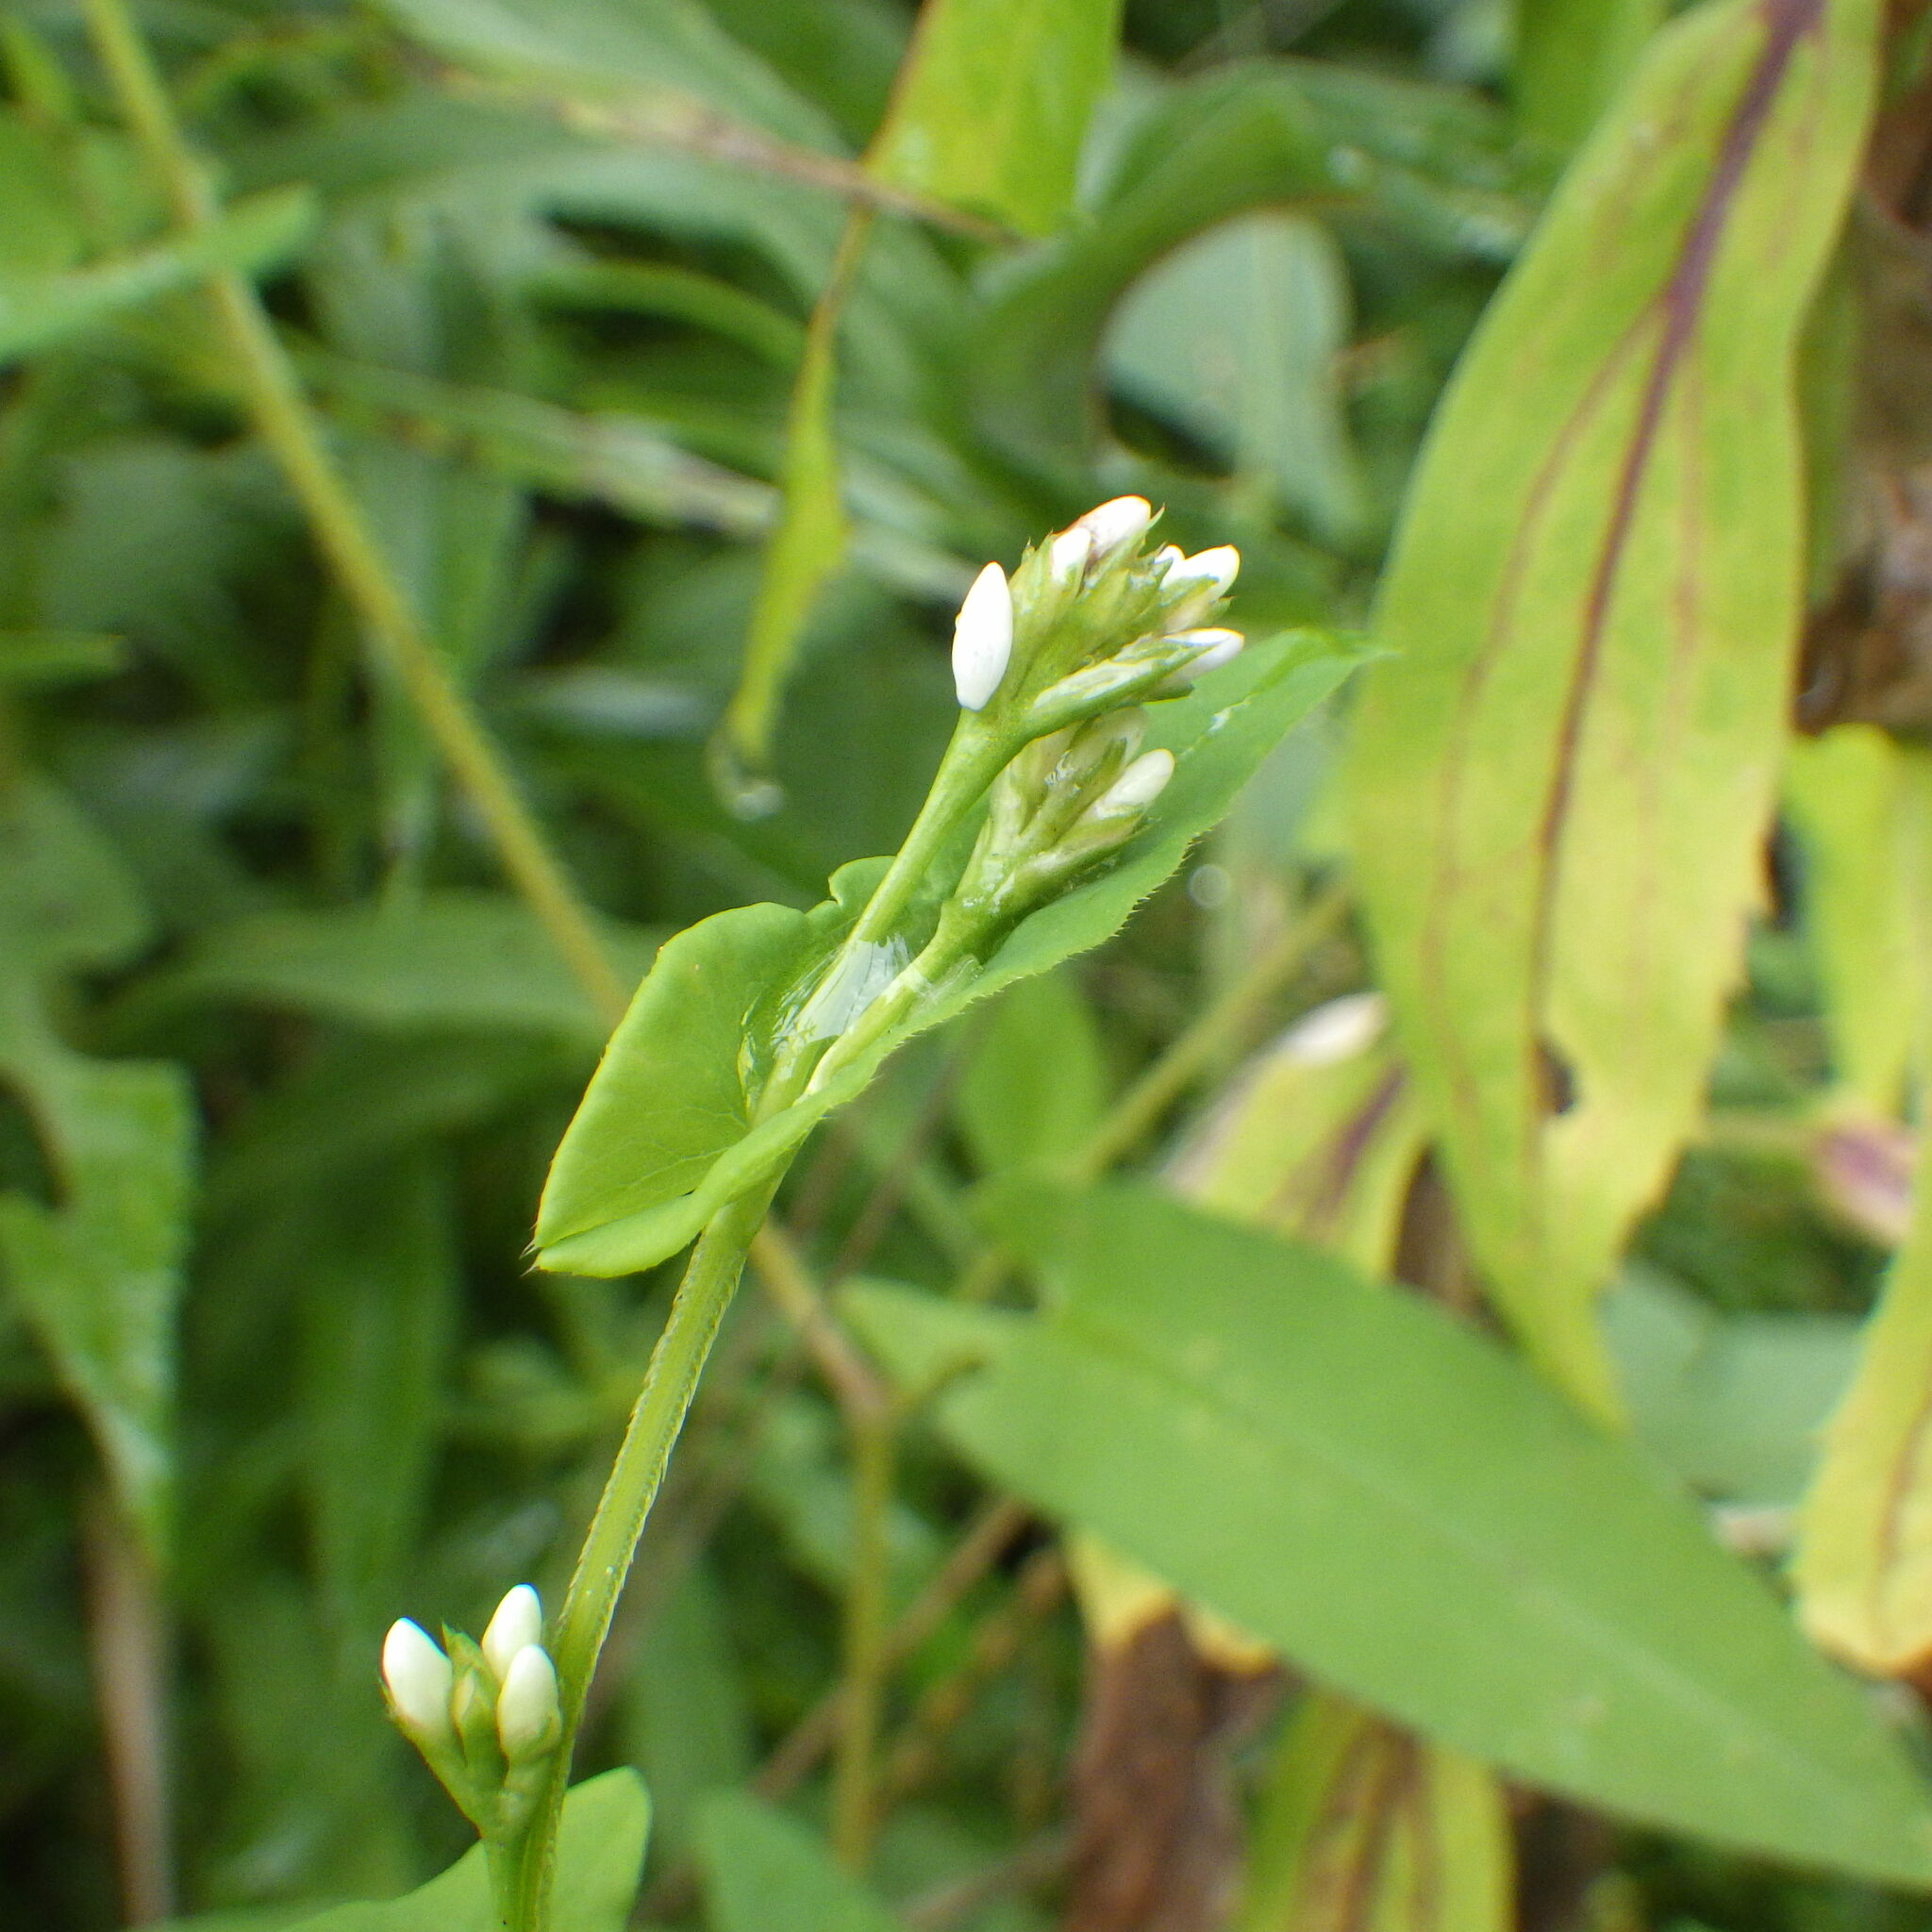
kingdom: Plantae
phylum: Tracheophyta
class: Magnoliopsida
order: Caryophyllales
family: Polygonaceae
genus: Persicaria
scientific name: Persicaria sagittata
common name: American tearthumb
